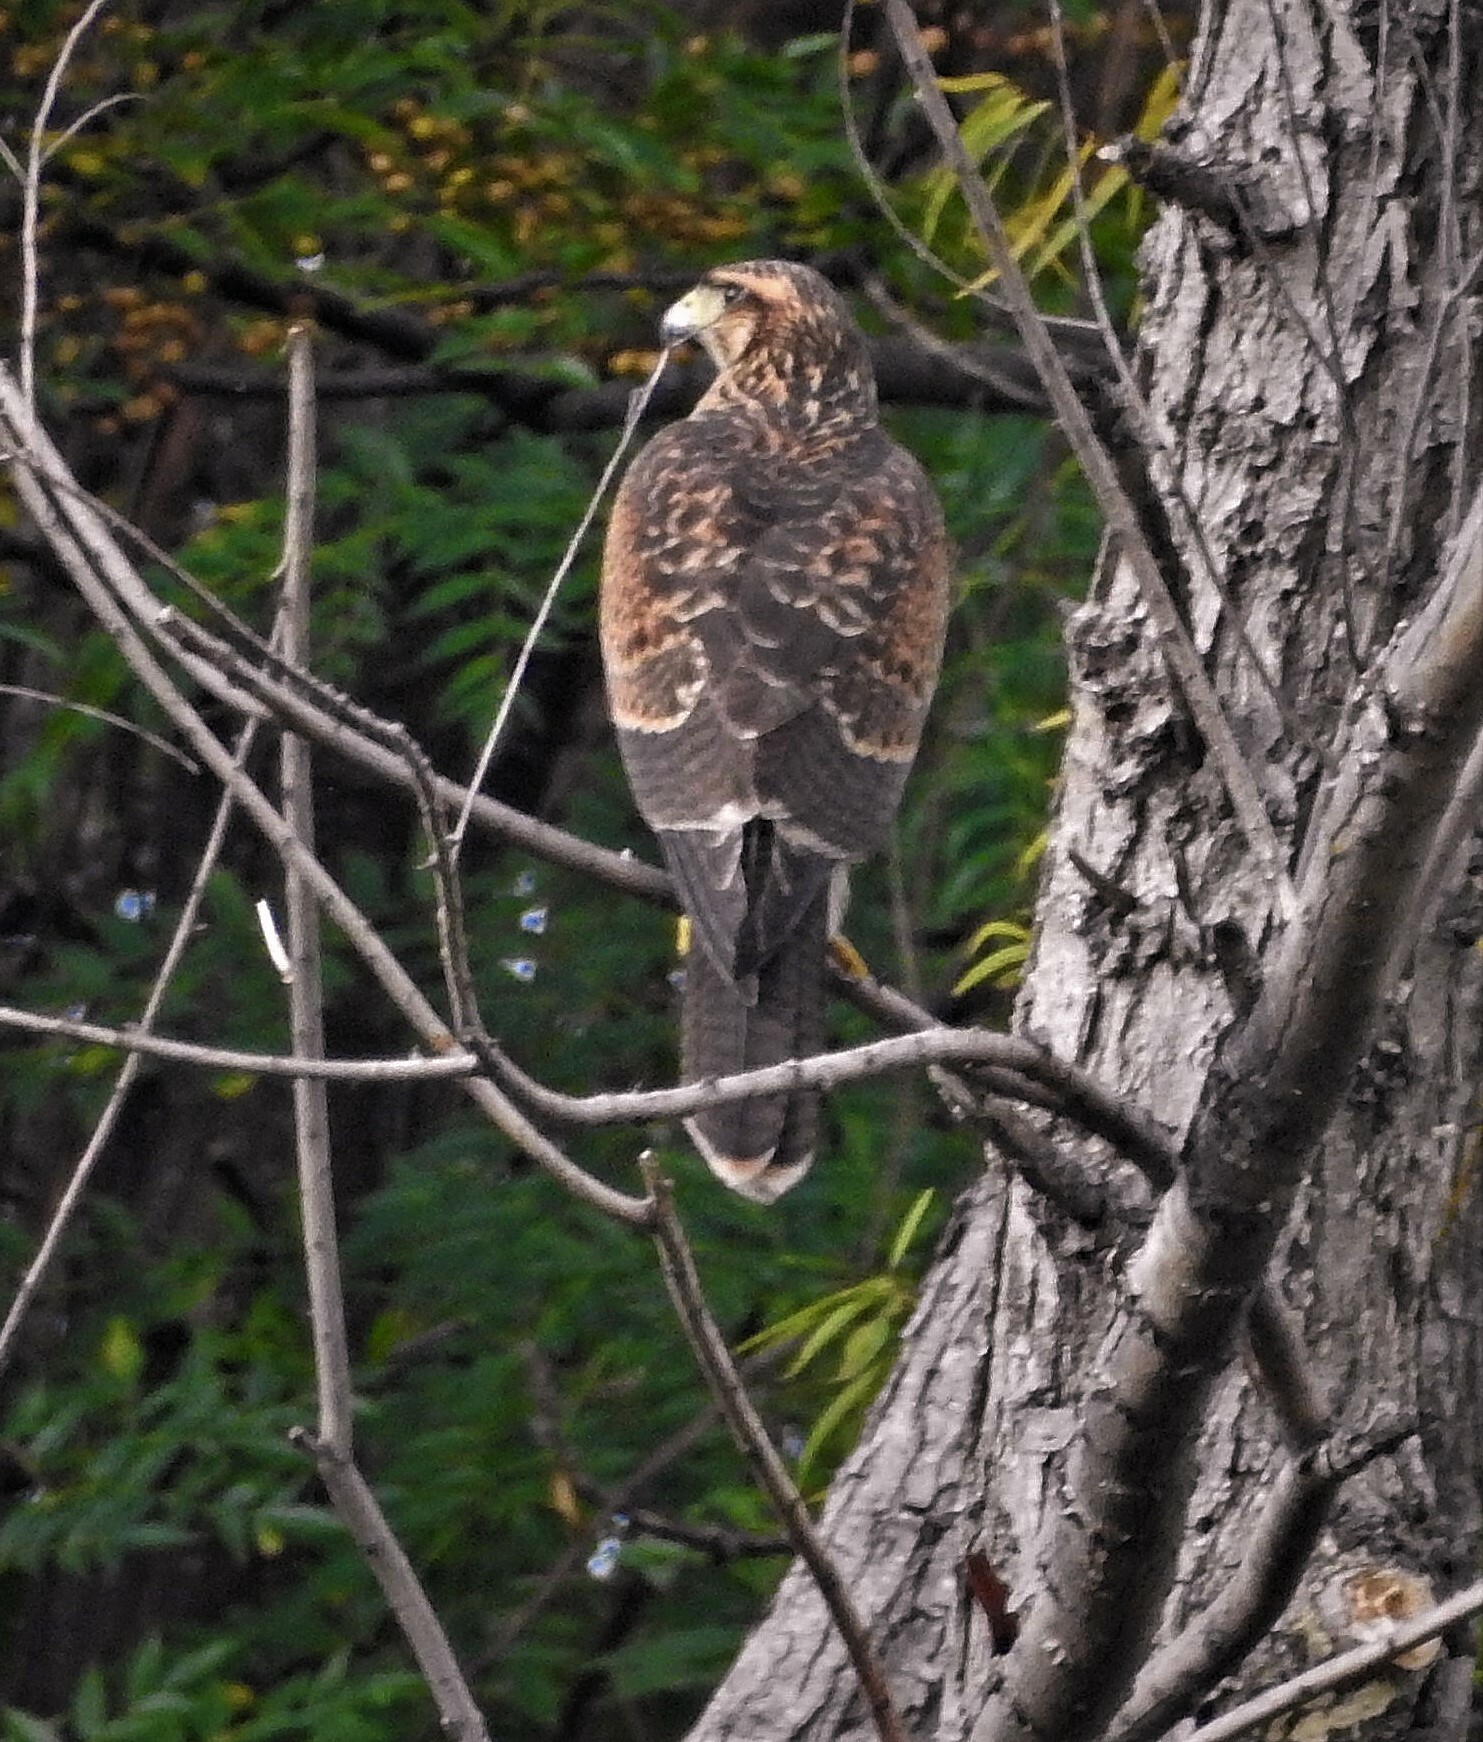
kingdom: Animalia
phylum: Chordata
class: Aves
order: Accipitriformes
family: Accipitridae
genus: Parabuteo
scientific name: Parabuteo unicinctus
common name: Harris's hawk
